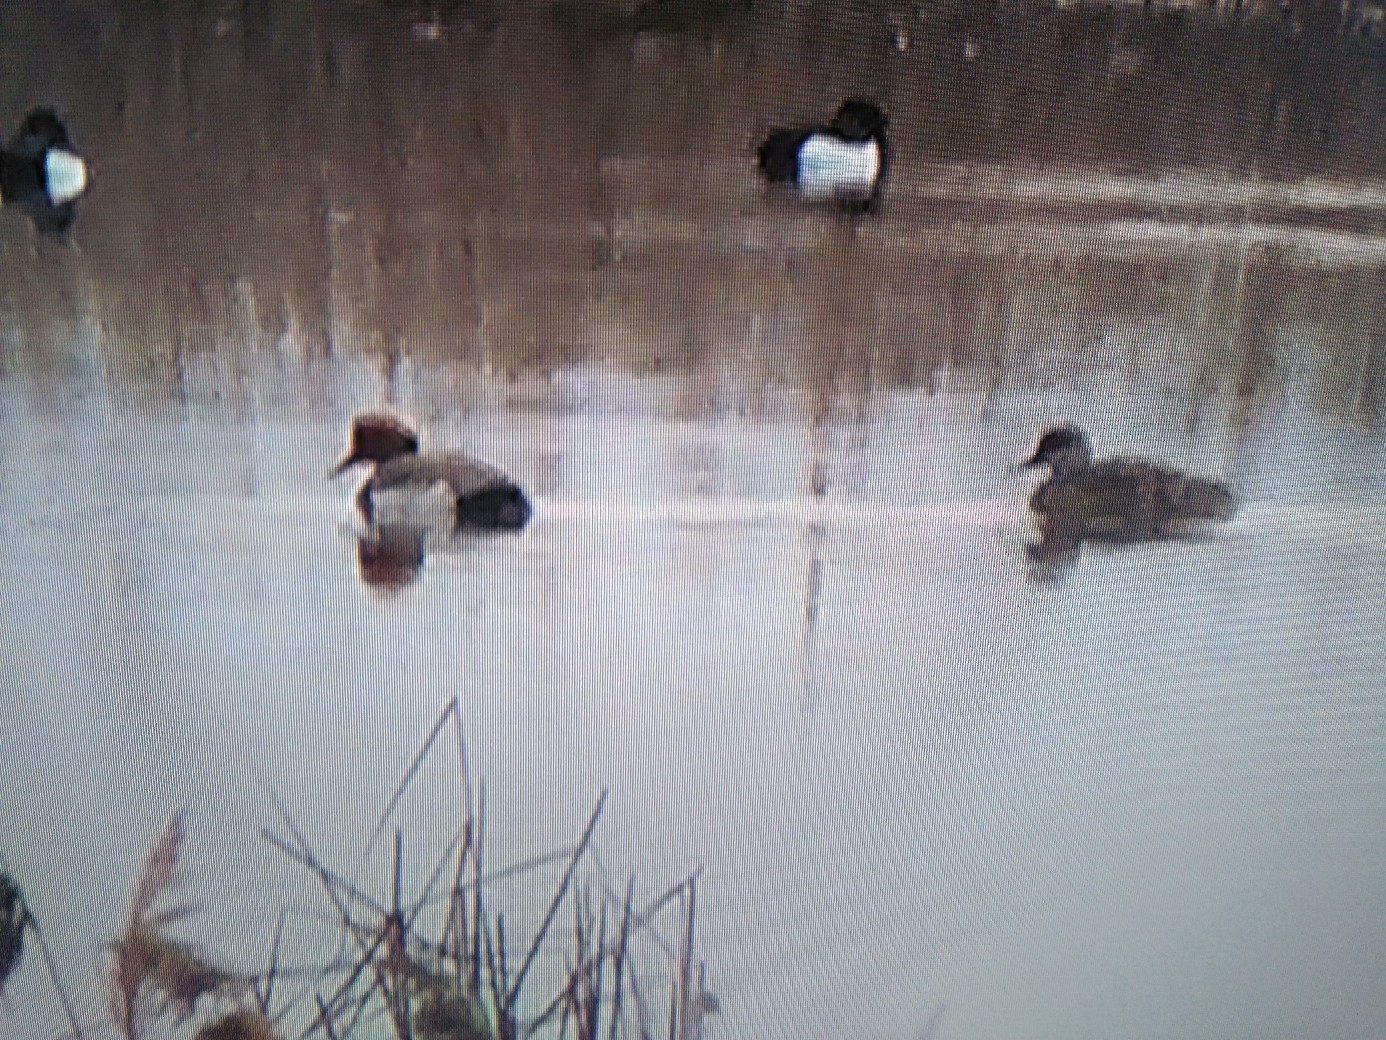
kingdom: Animalia
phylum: Chordata
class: Aves
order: Anseriformes
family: Anatidae
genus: Netta
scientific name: Netta rufina
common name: Red-crested pochard
